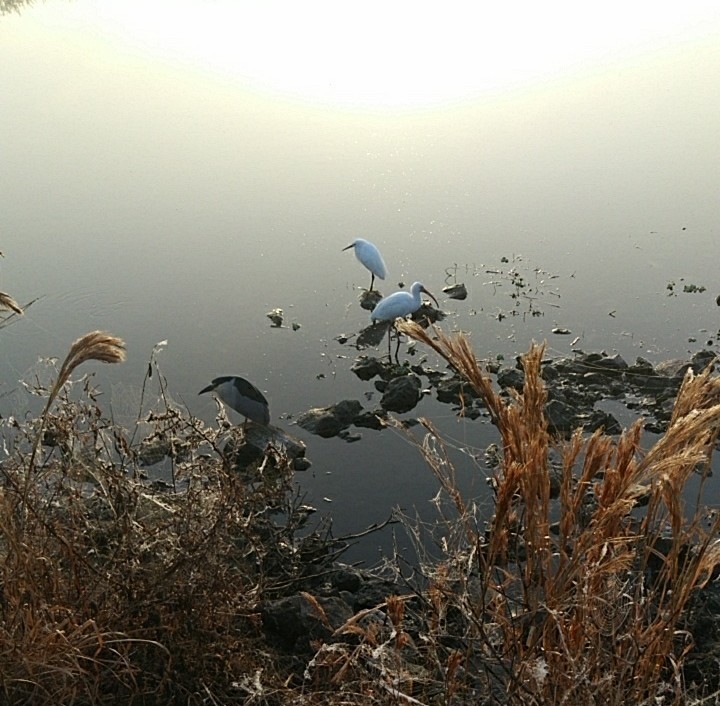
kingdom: Animalia
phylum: Chordata
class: Aves
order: Pelecaniformes
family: Ardeidae
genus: Egretta
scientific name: Egretta thula
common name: Snowy egret
